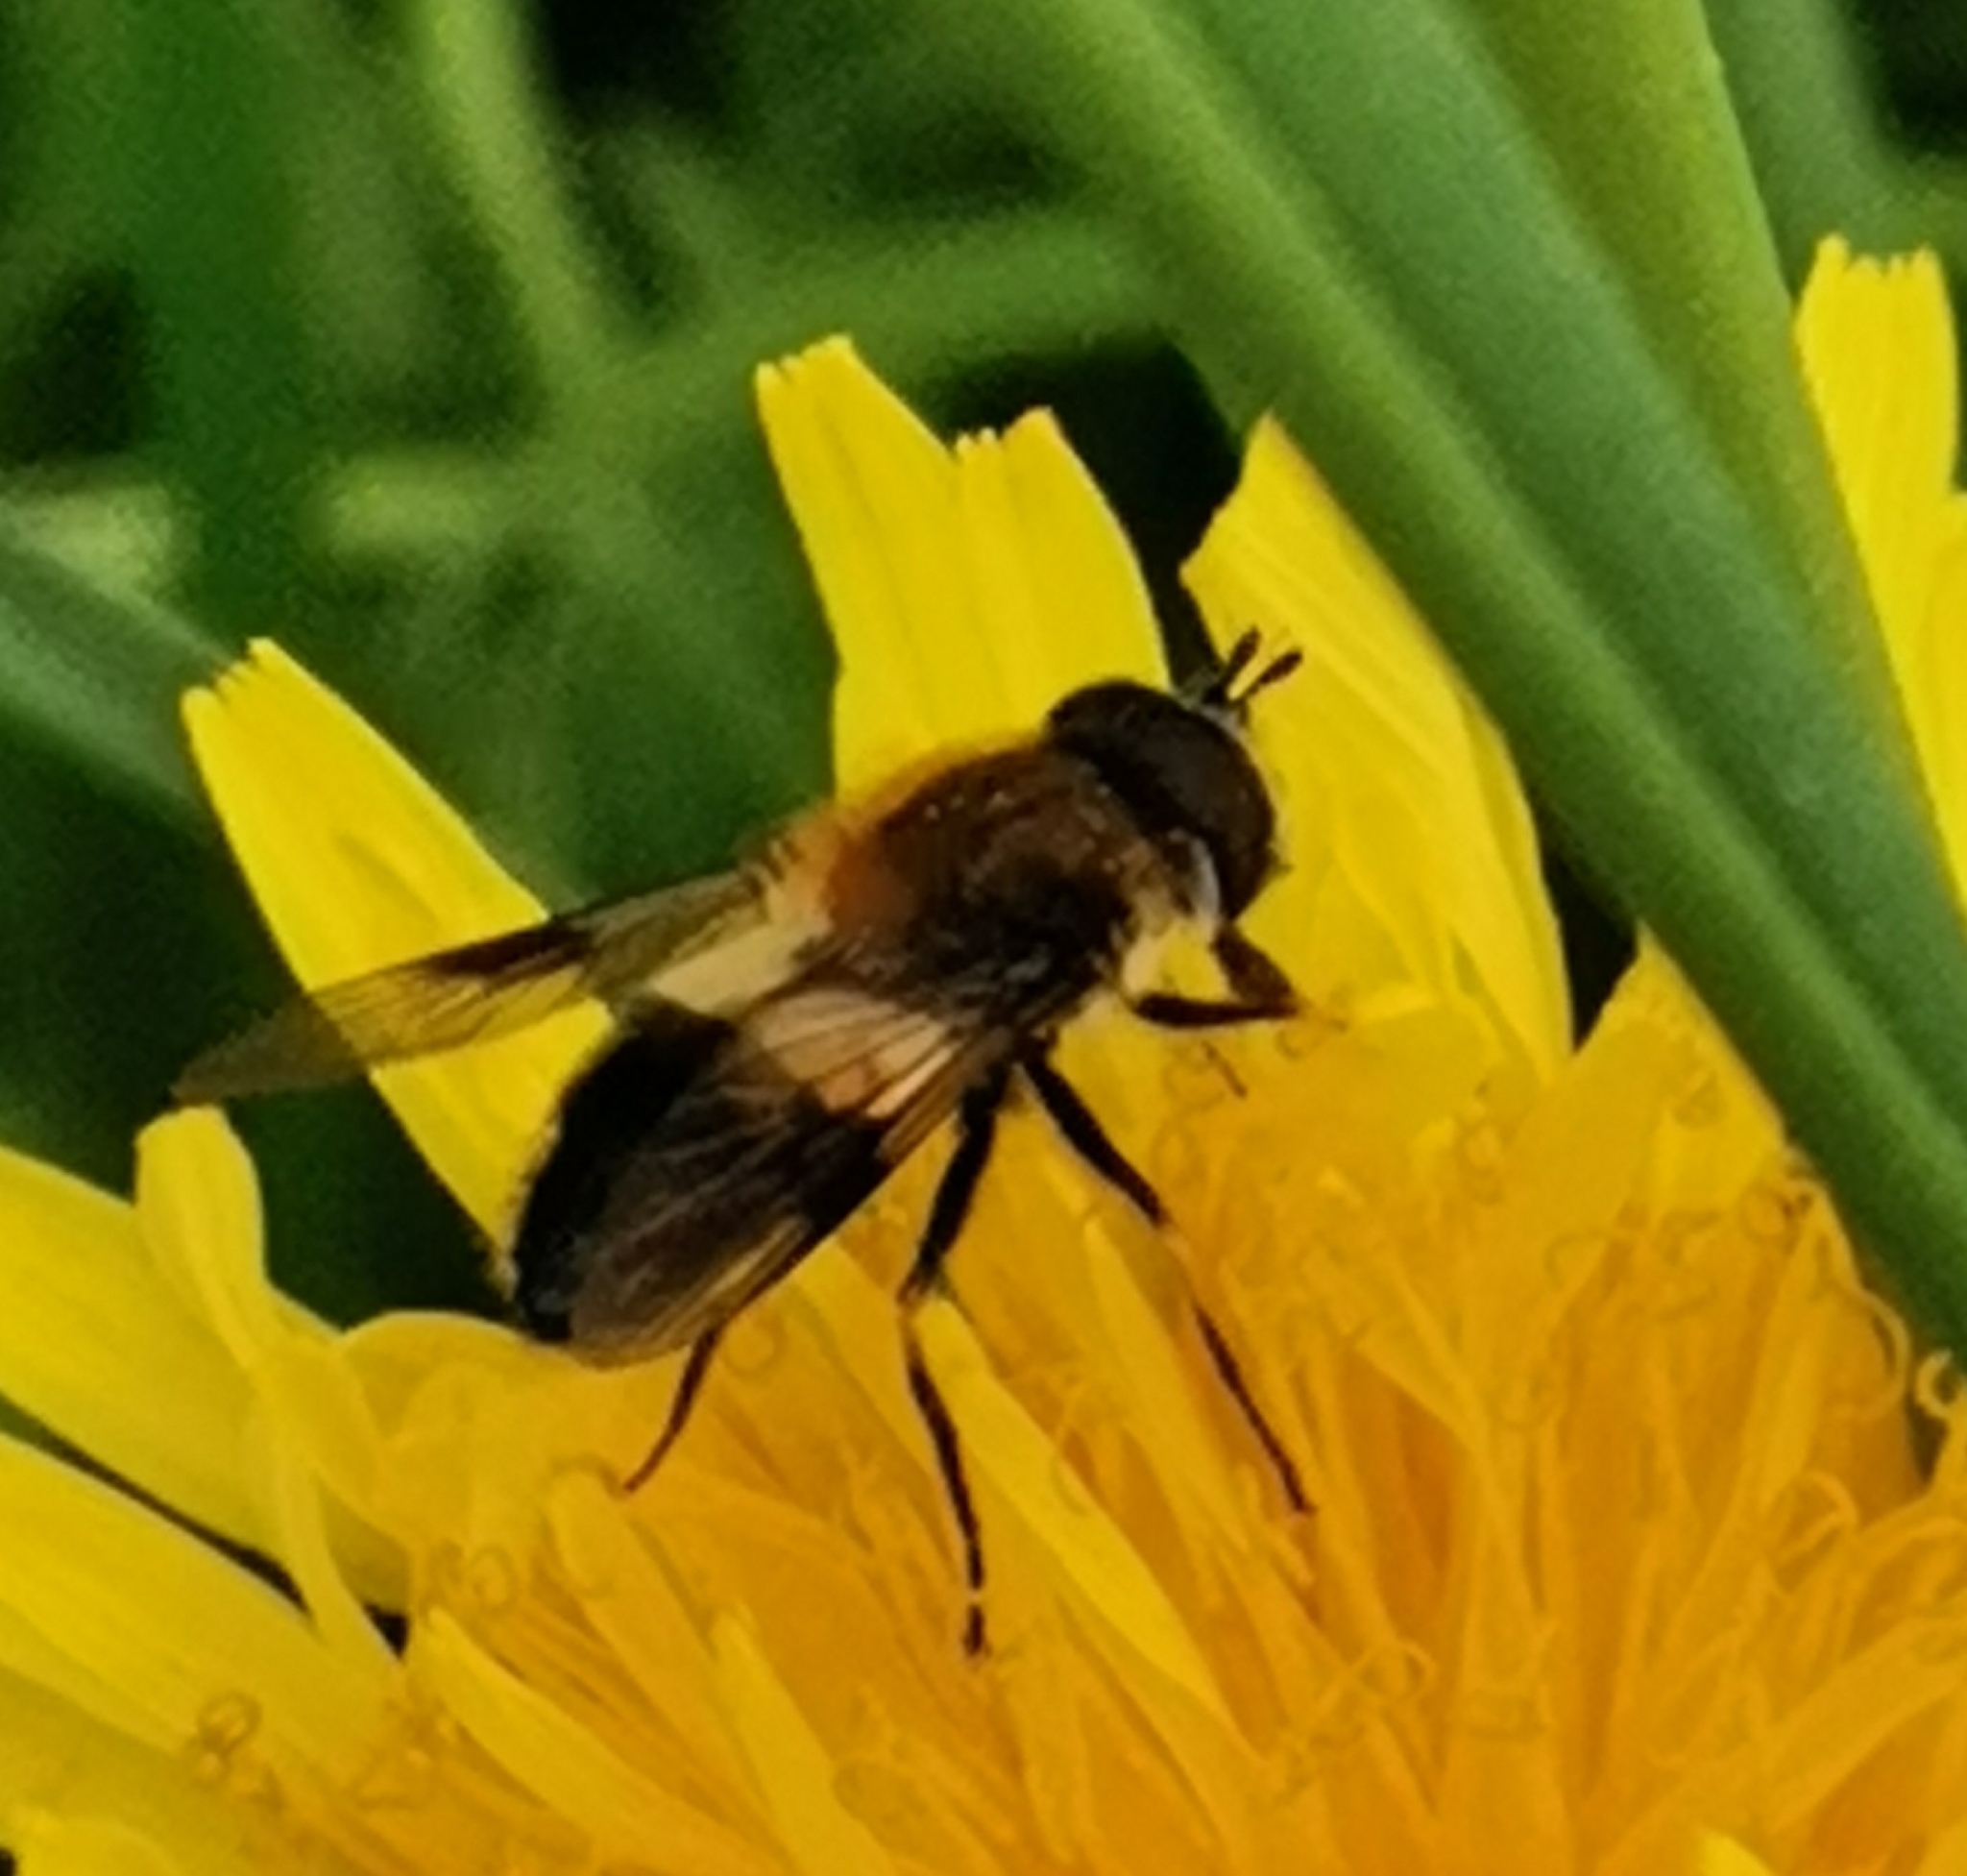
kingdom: Animalia
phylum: Arthropoda
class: Insecta
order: Diptera
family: Syrphidae
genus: Leucozona
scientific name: Leucozona lucorum
